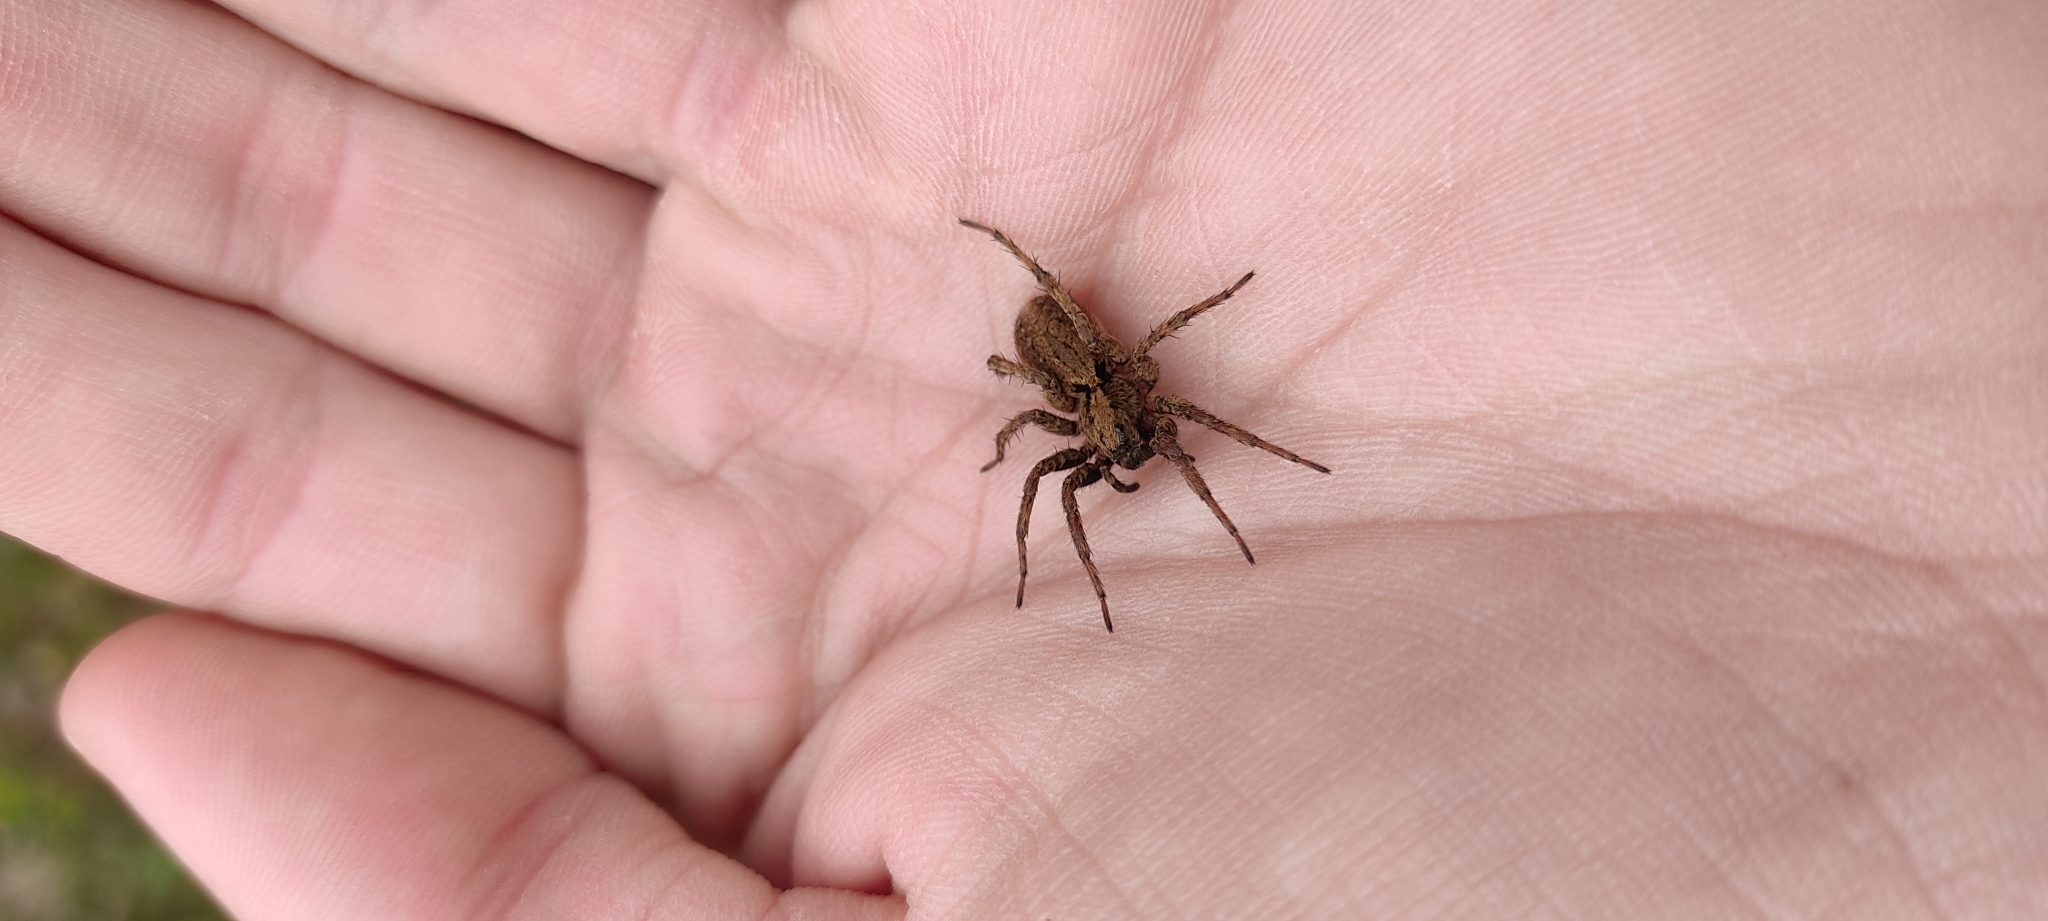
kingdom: Animalia
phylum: Arthropoda
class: Arachnida
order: Araneae
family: Lycosidae
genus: Alopecosa
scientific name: Alopecosa albofasciata
